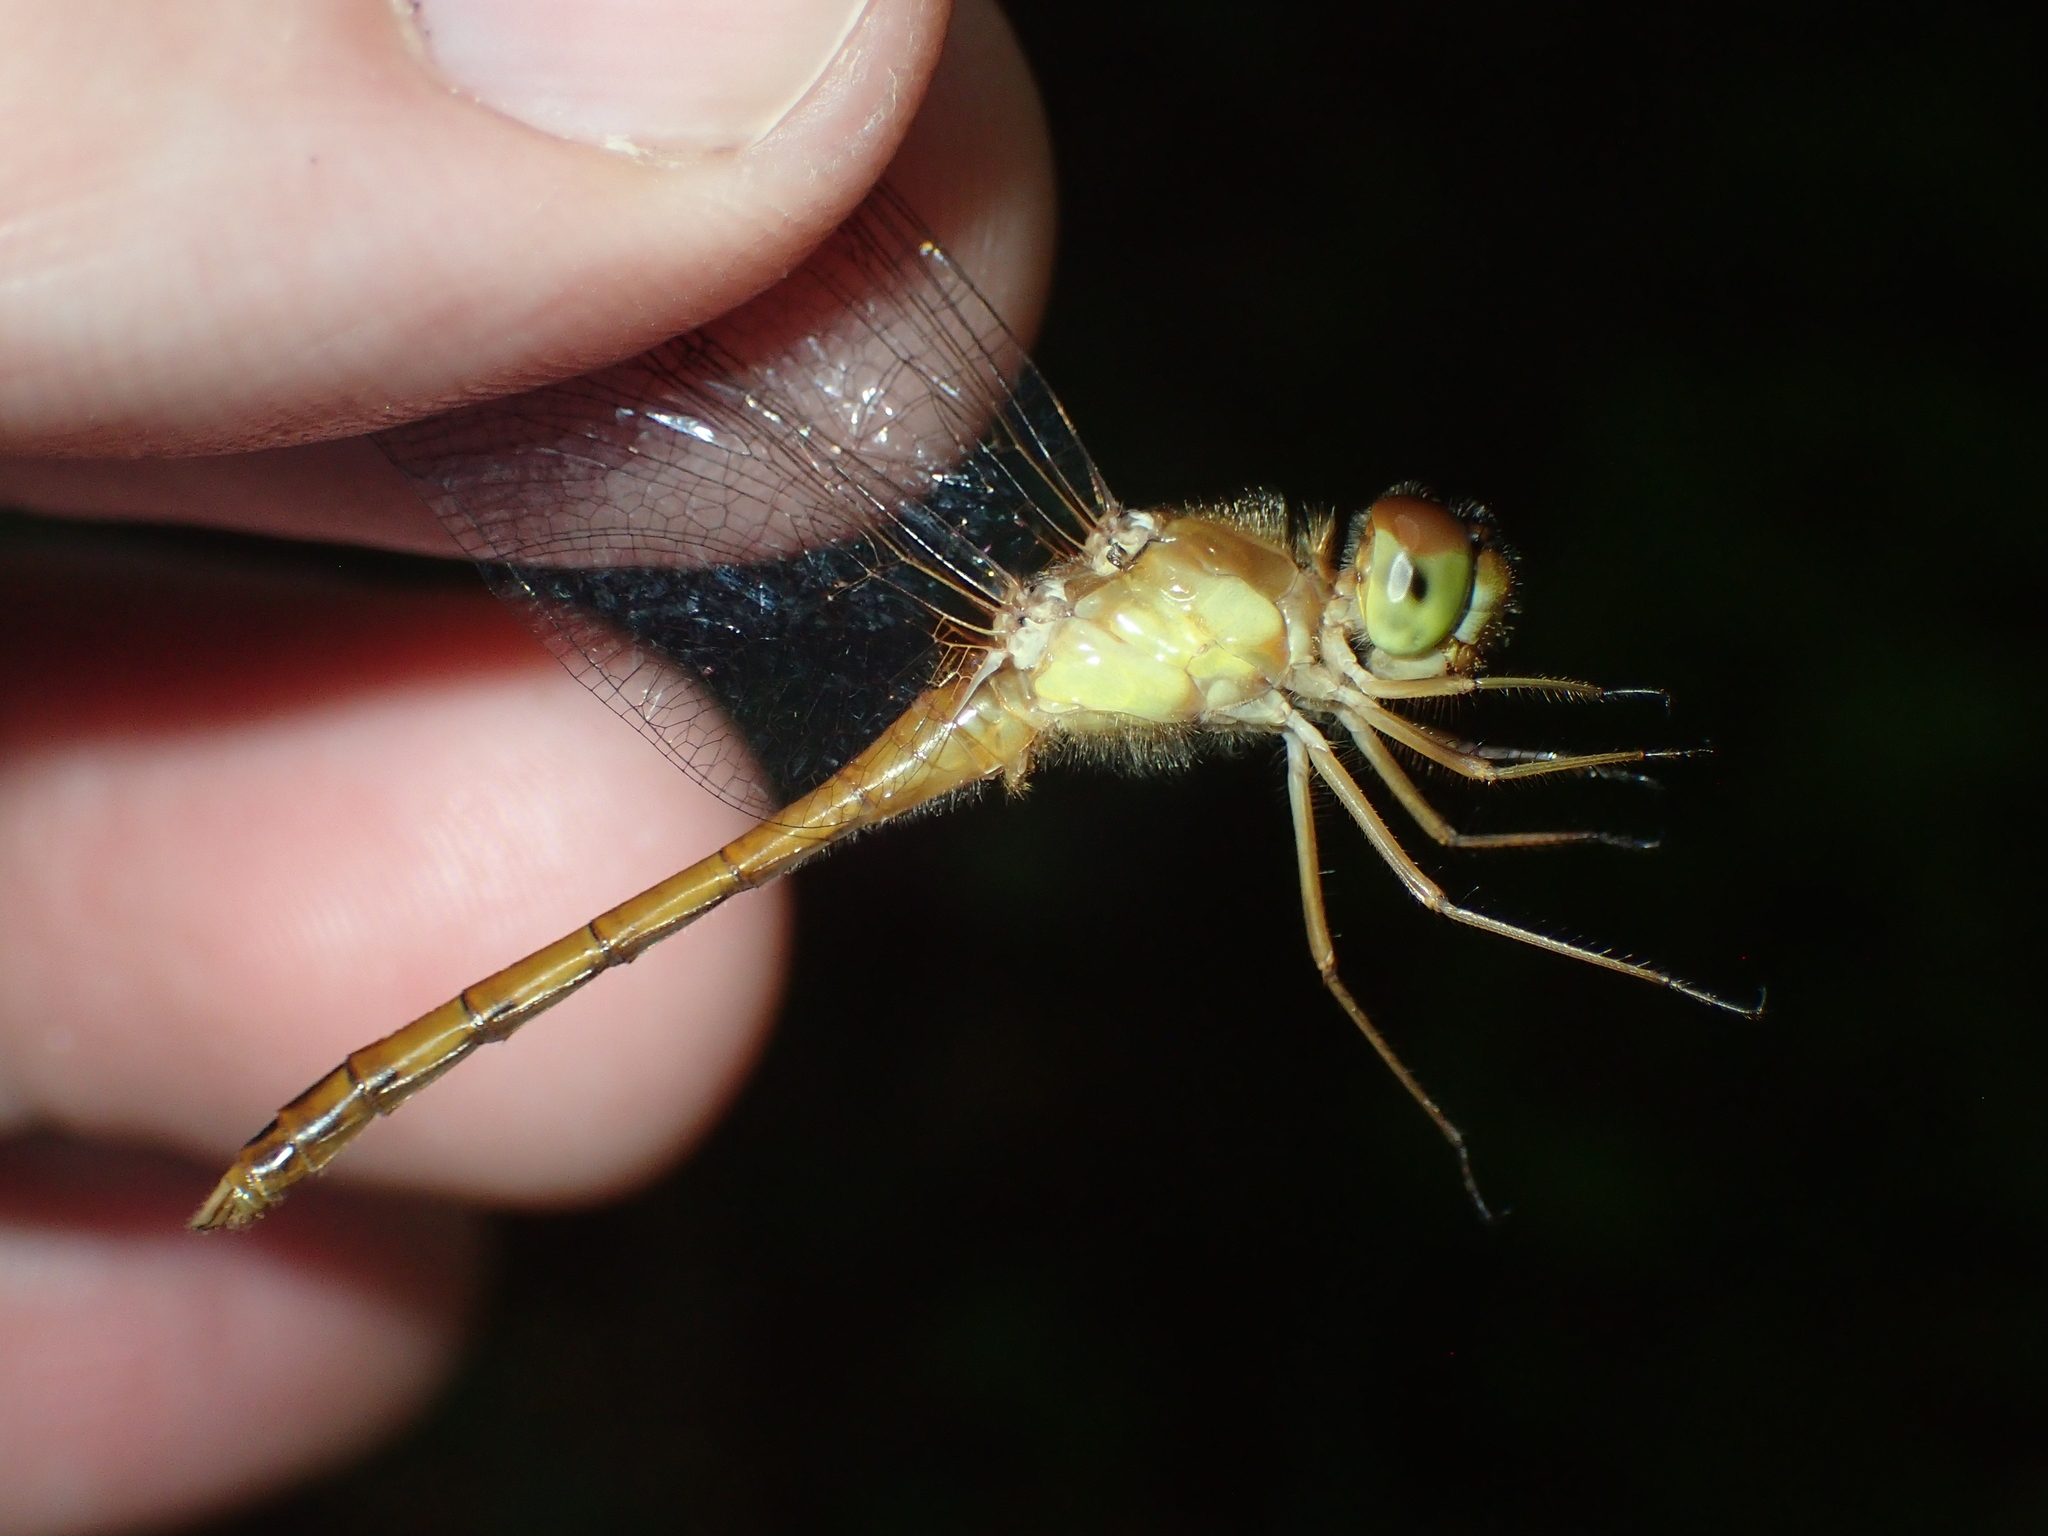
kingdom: Animalia
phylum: Arthropoda
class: Insecta
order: Odonata
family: Libellulidae
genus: Sympetrum
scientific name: Sympetrum vicinum
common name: Autumn meadowhawk
